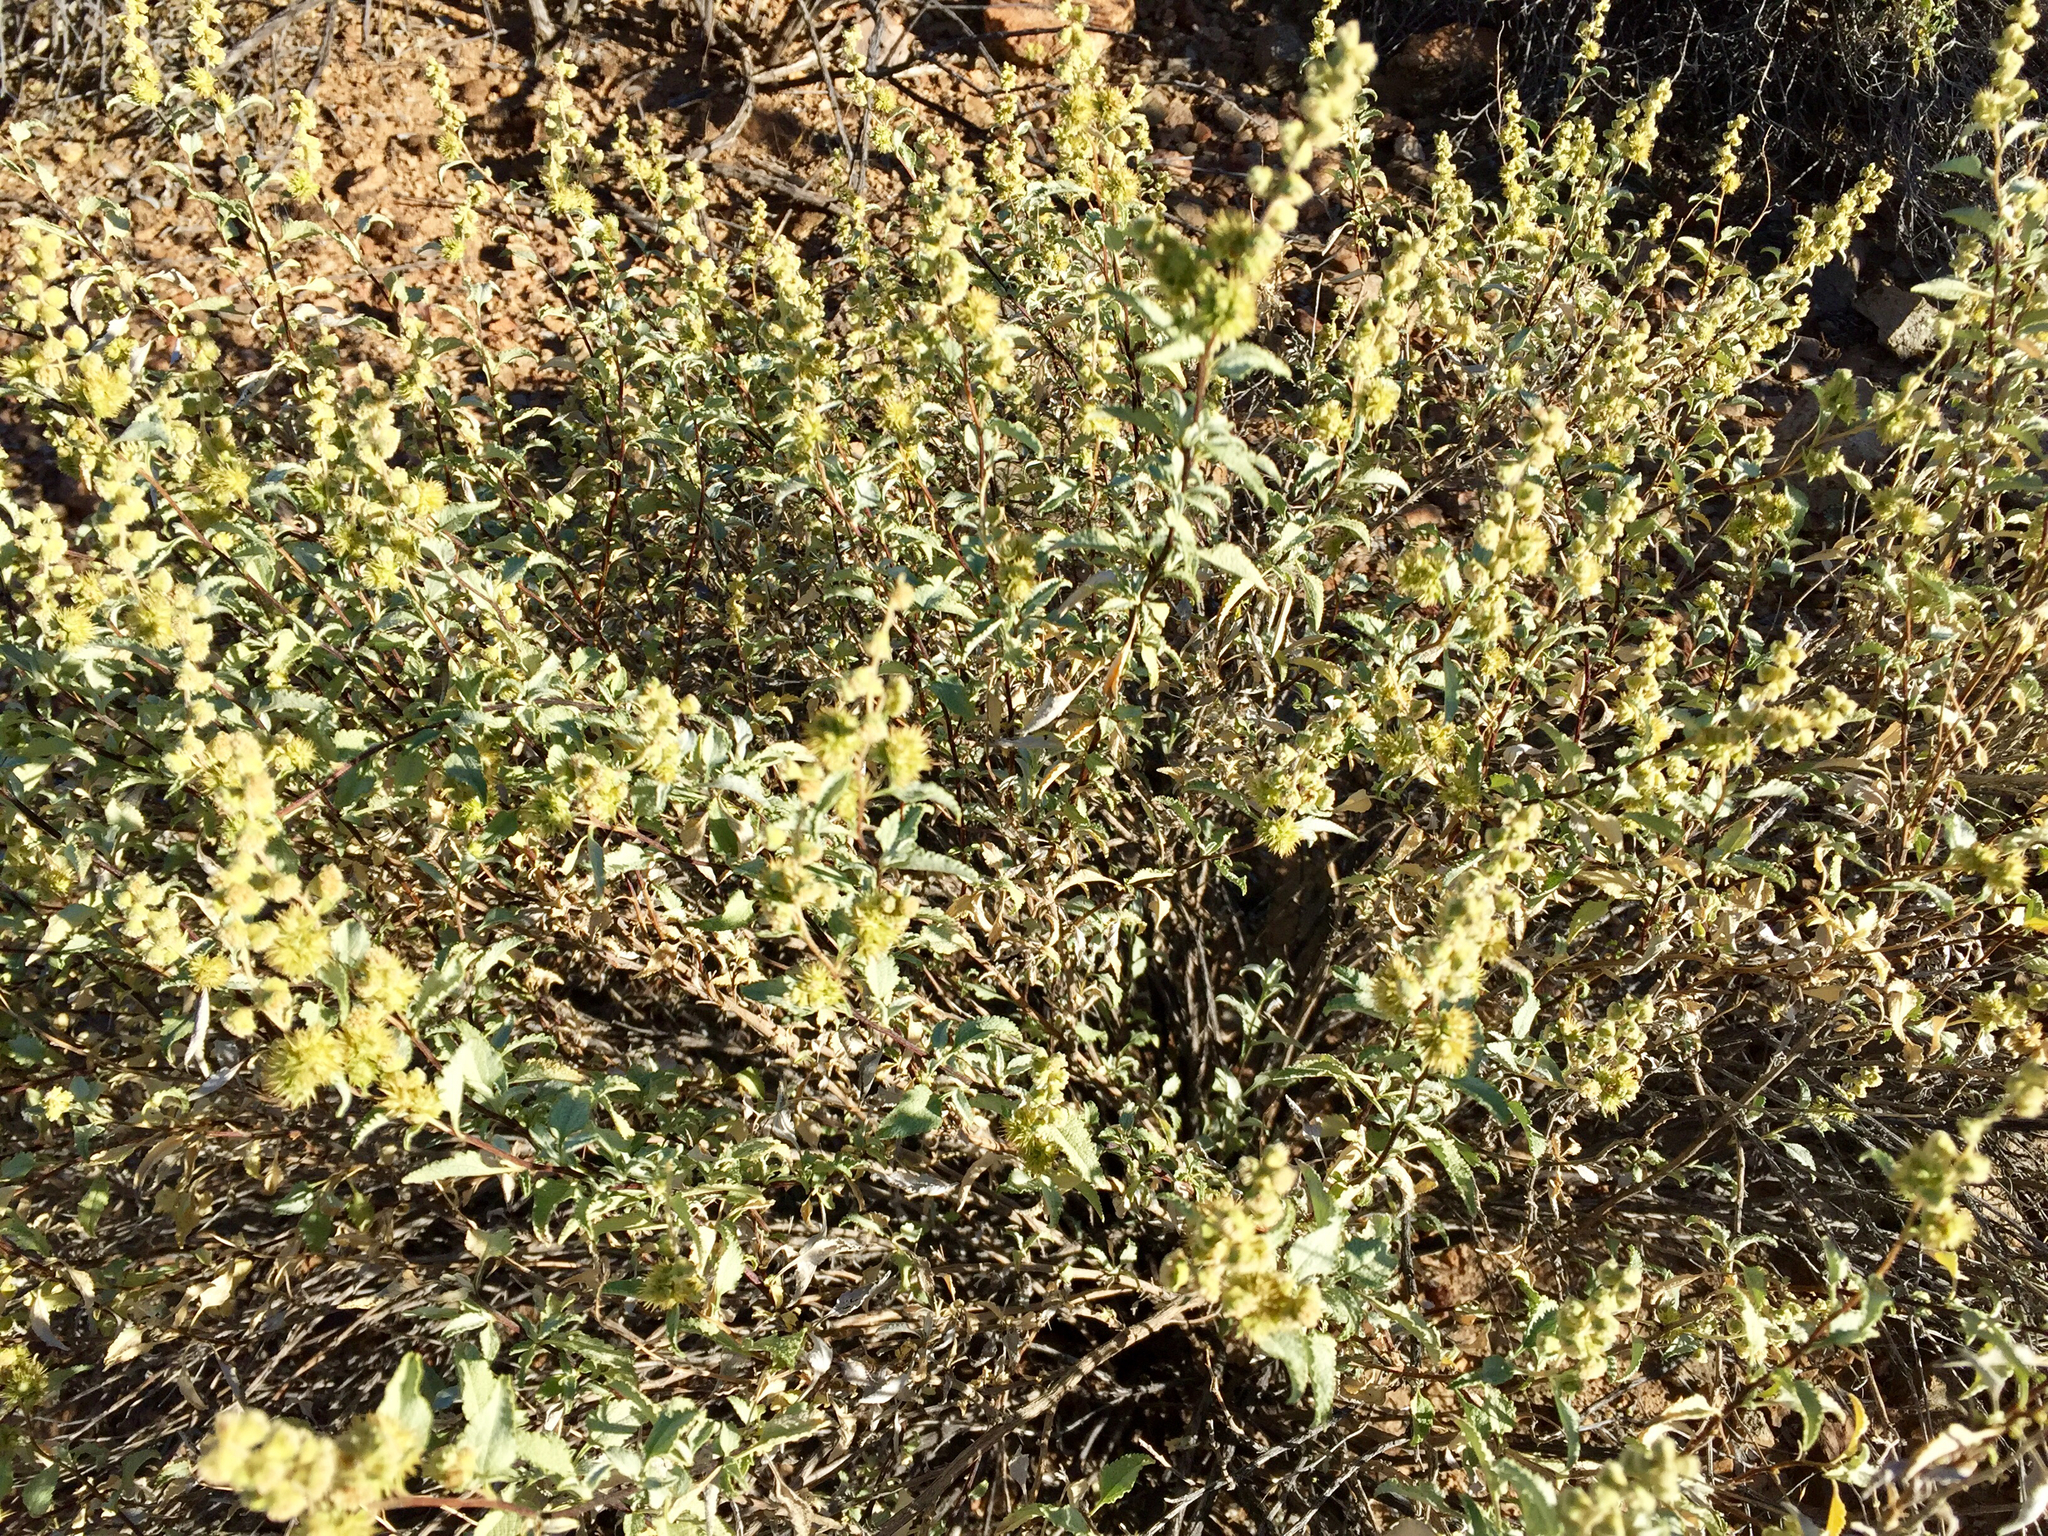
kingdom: Plantae
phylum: Tracheophyta
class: Magnoliopsida
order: Asterales
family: Asteraceae
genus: Ambrosia
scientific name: Ambrosia deltoidea
